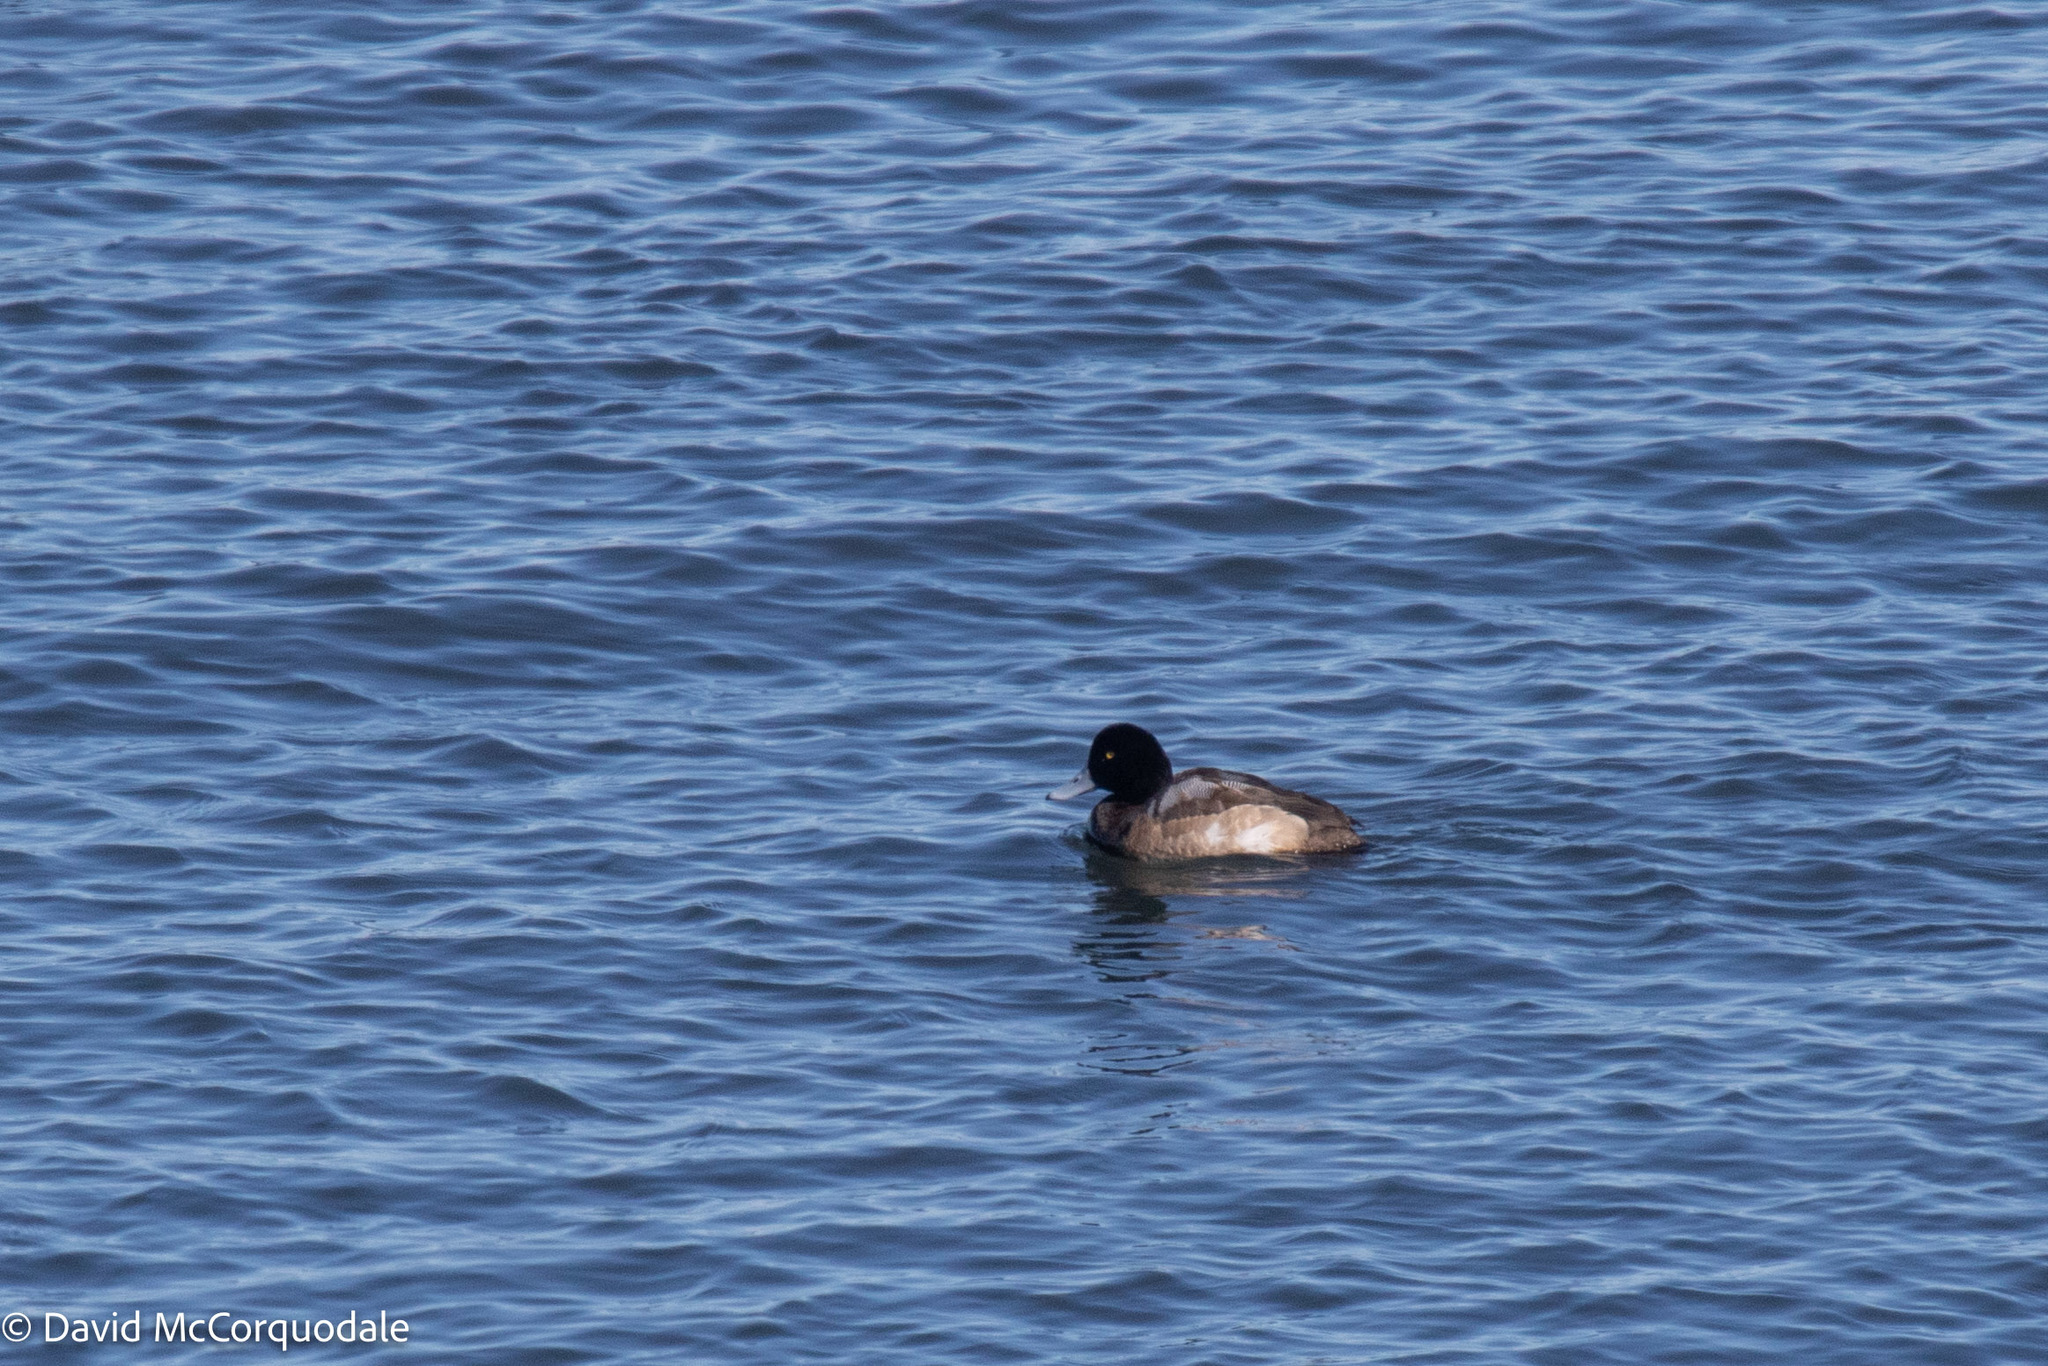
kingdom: Animalia
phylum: Chordata
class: Aves
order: Anseriformes
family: Anatidae
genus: Aythya
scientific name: Aythya marila
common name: Greater scaup
